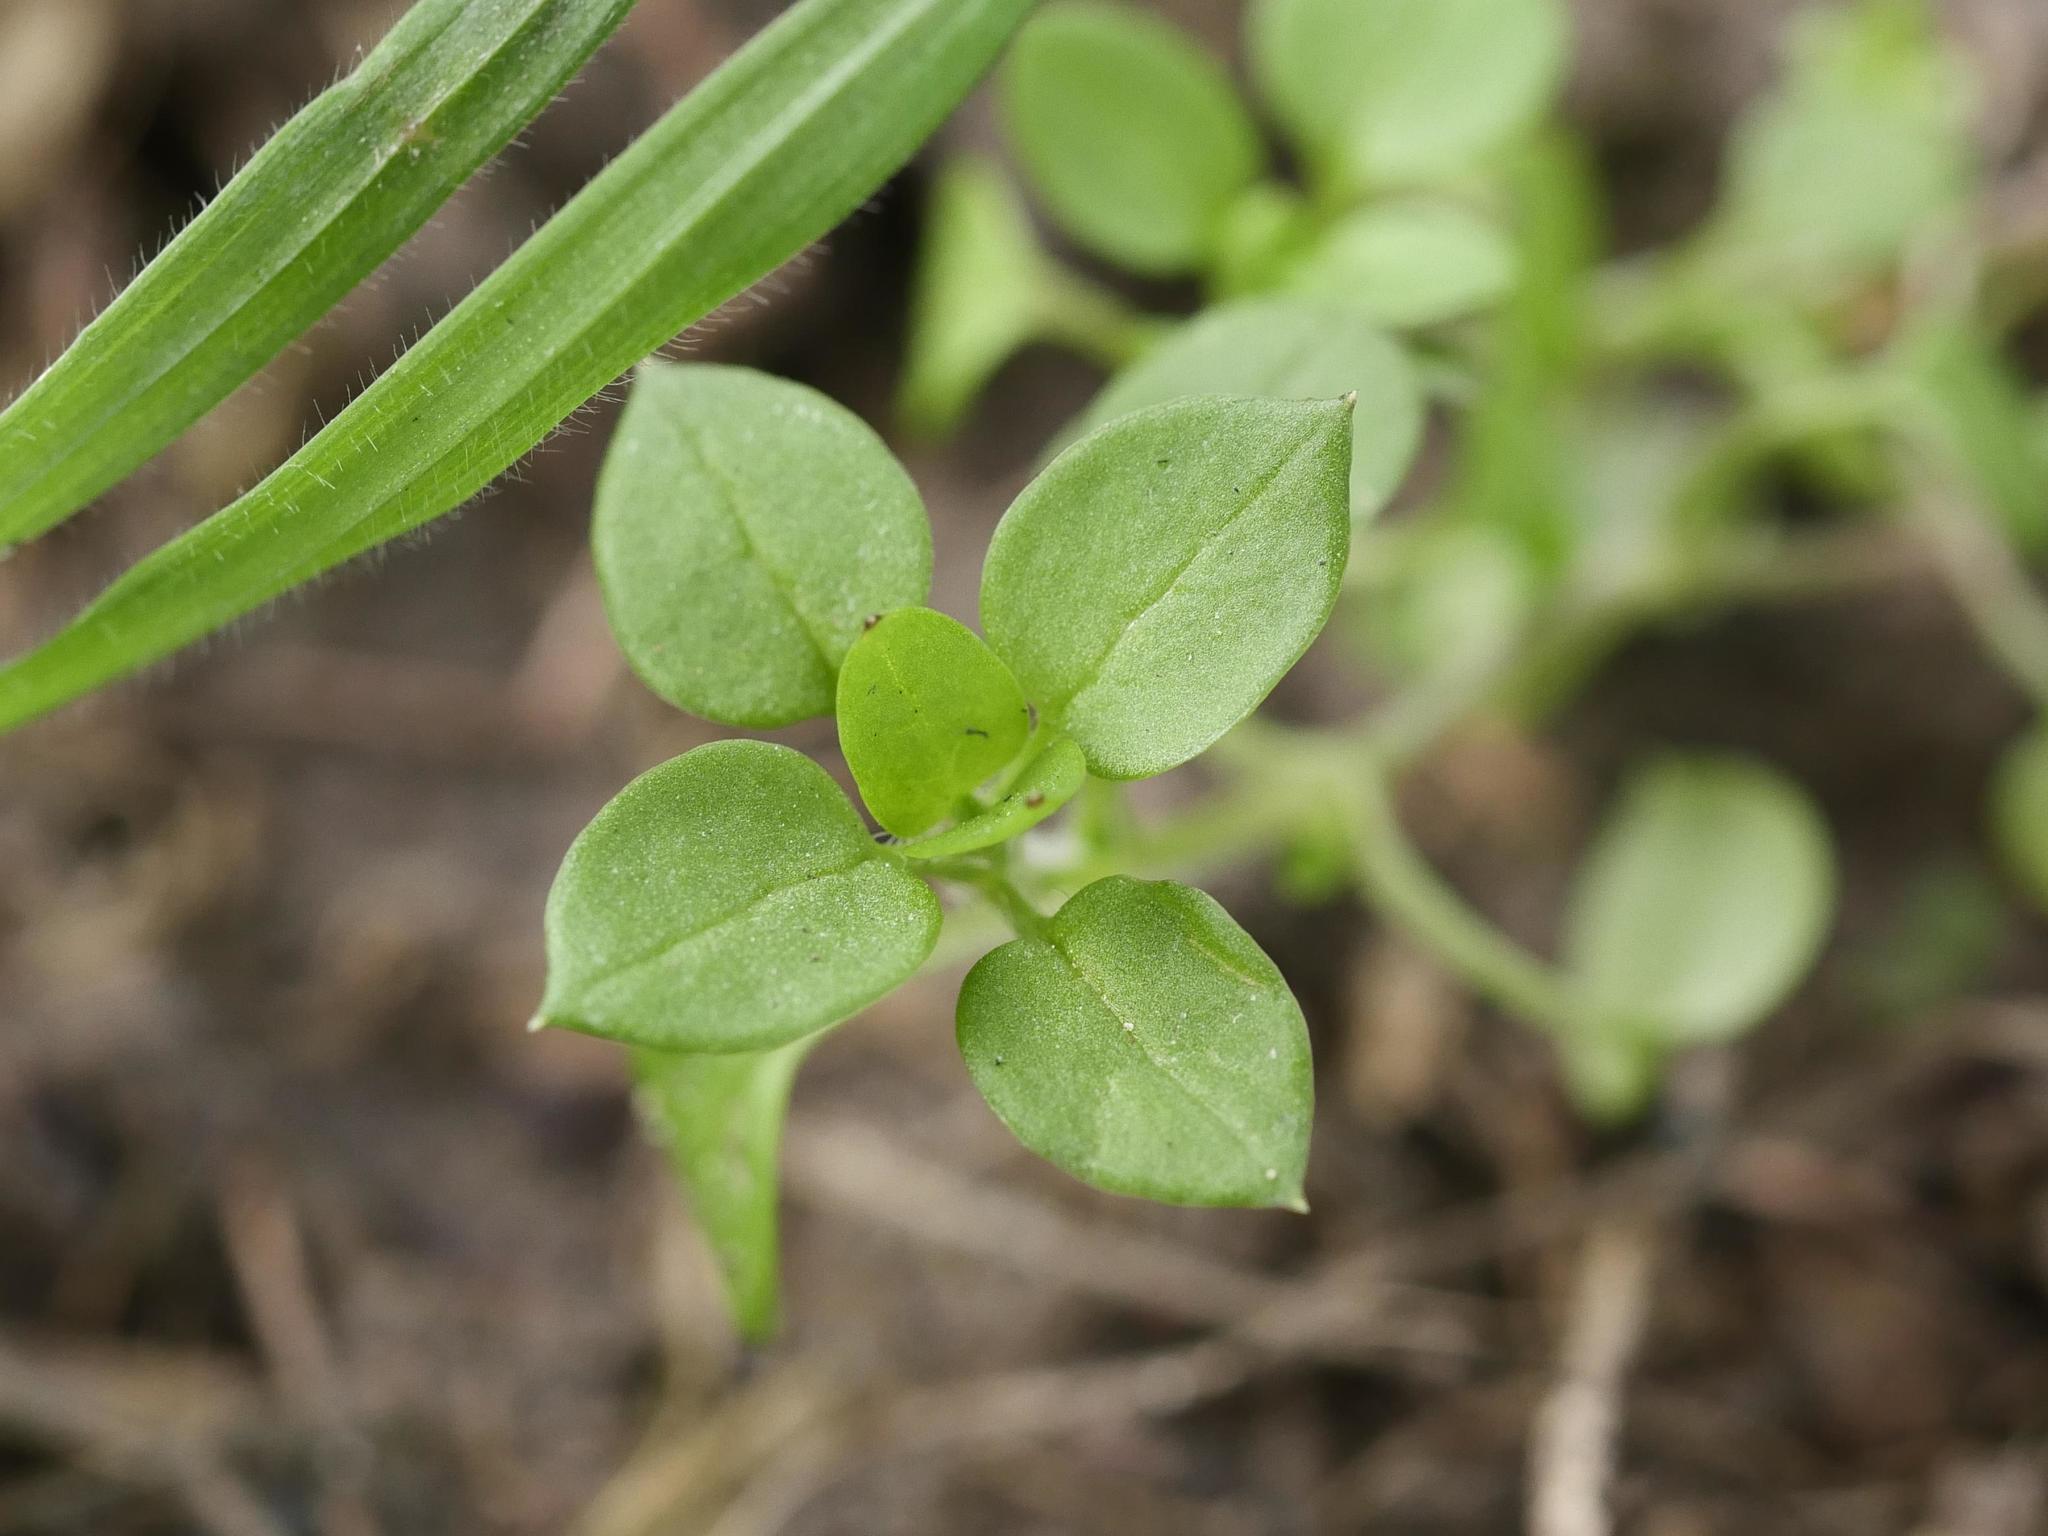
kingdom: Plantae
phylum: Tracheophyta
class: Magnoliopsida
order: Caryophyllales
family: Caryophyllaceae
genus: Stellaria
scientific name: Stellaria media
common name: Common chickweed
